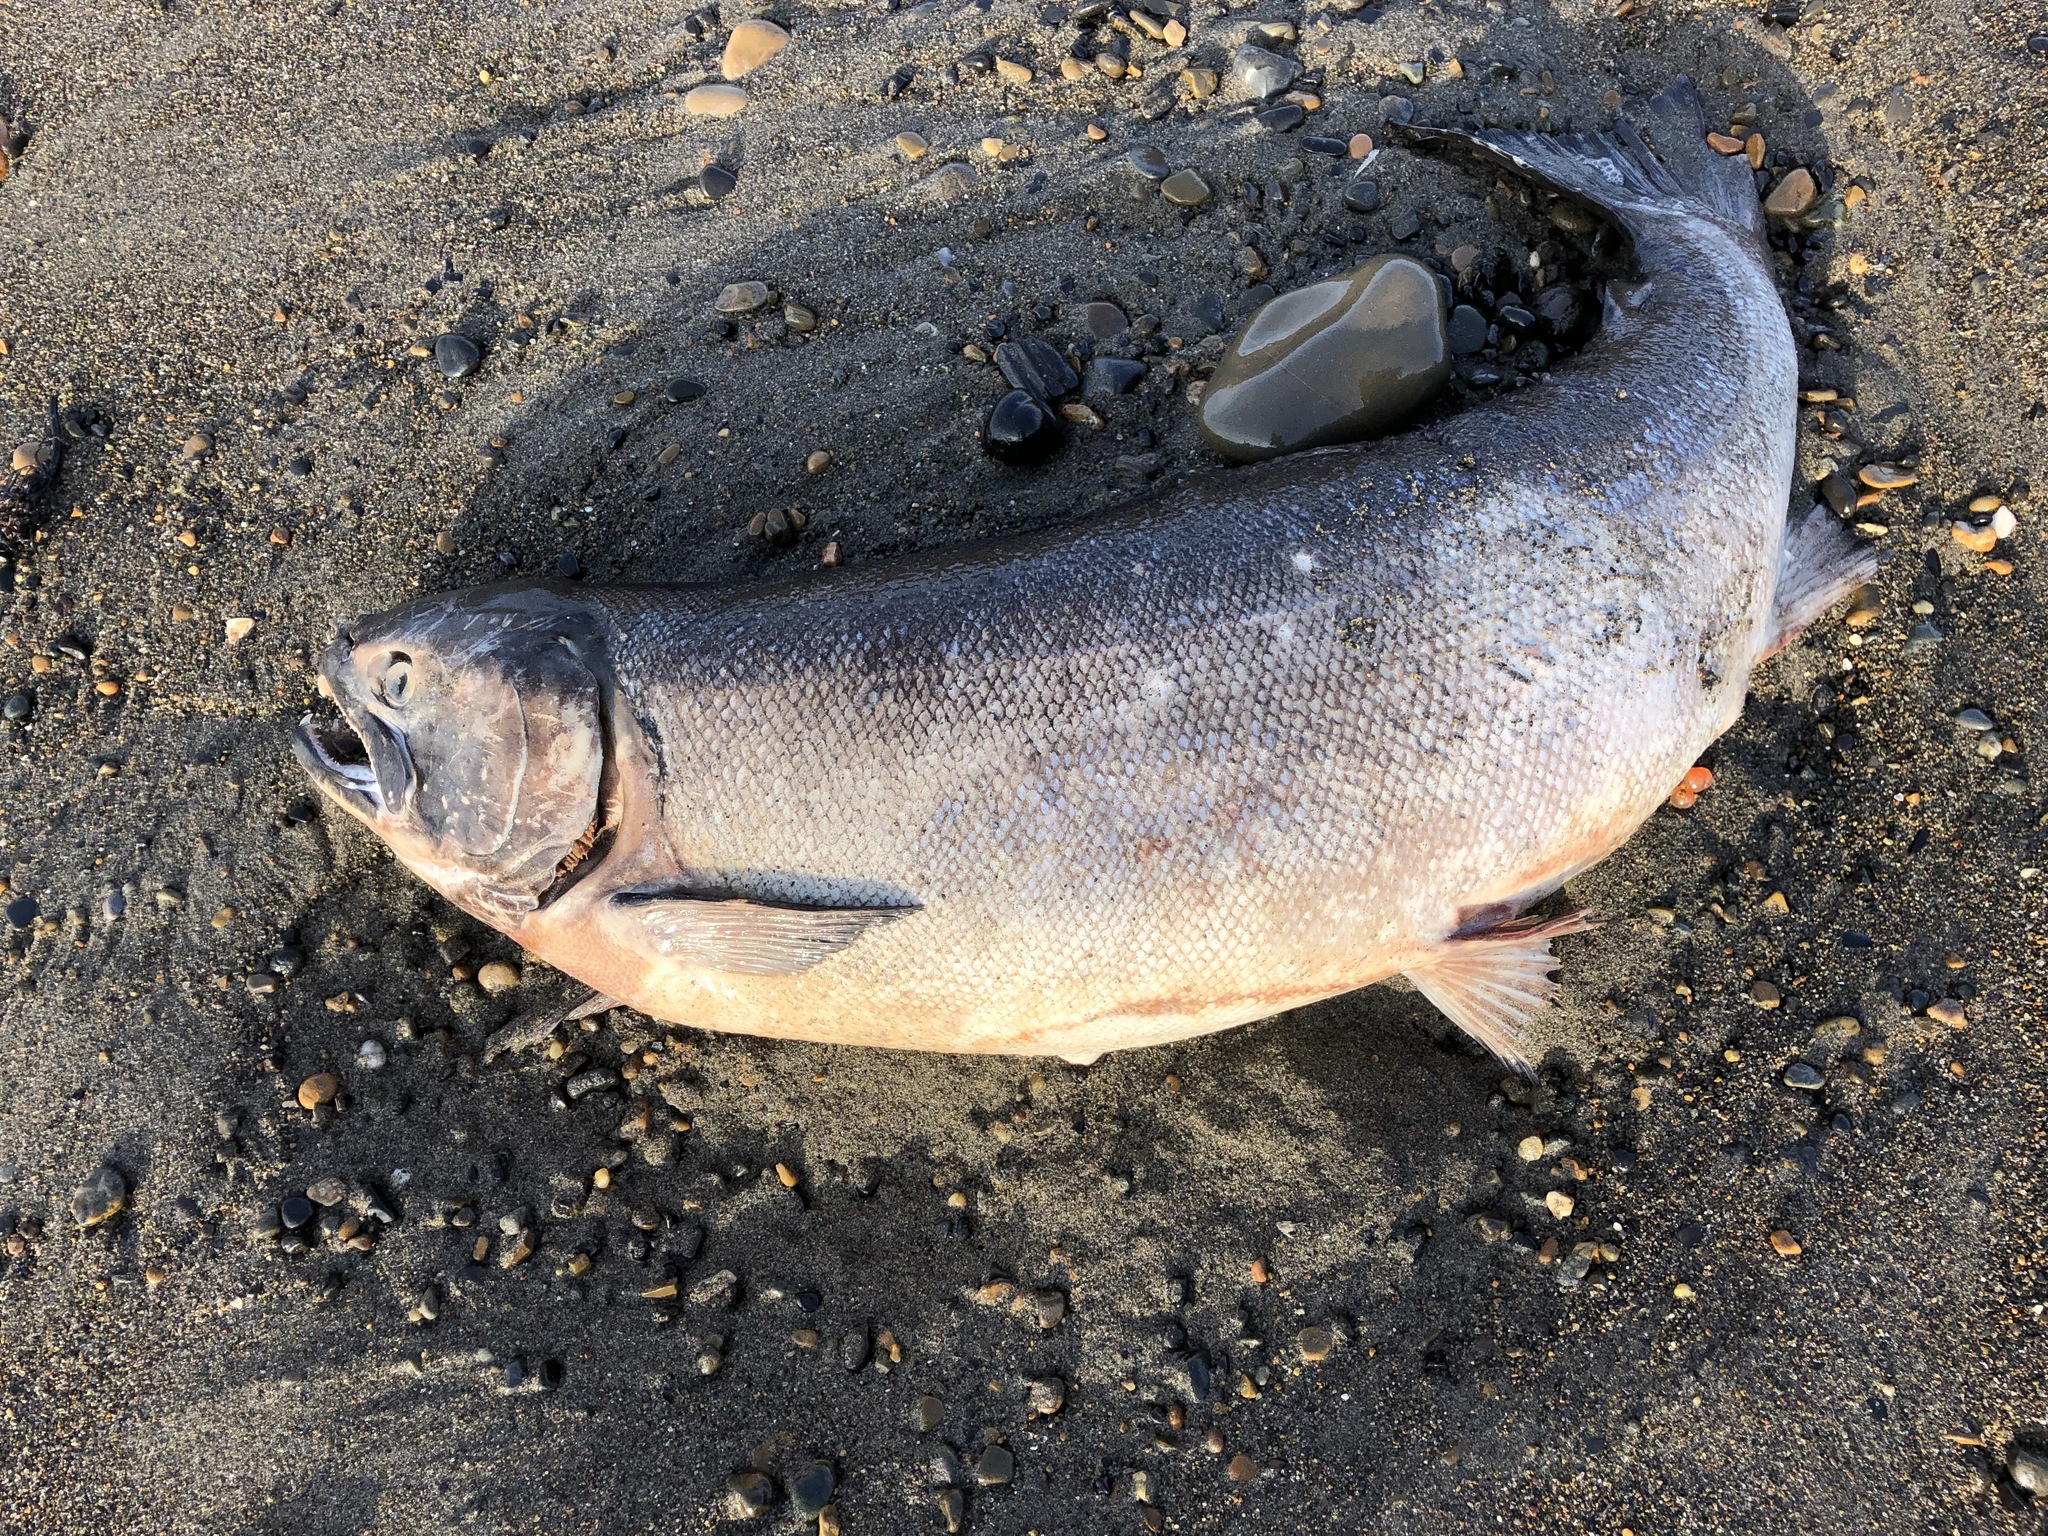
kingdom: Animalia
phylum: Chordata
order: Salmoniformes
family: Salmonidae
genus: Oncorhynchus
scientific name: Oncorhynchus kisutch
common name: Coho salmon
